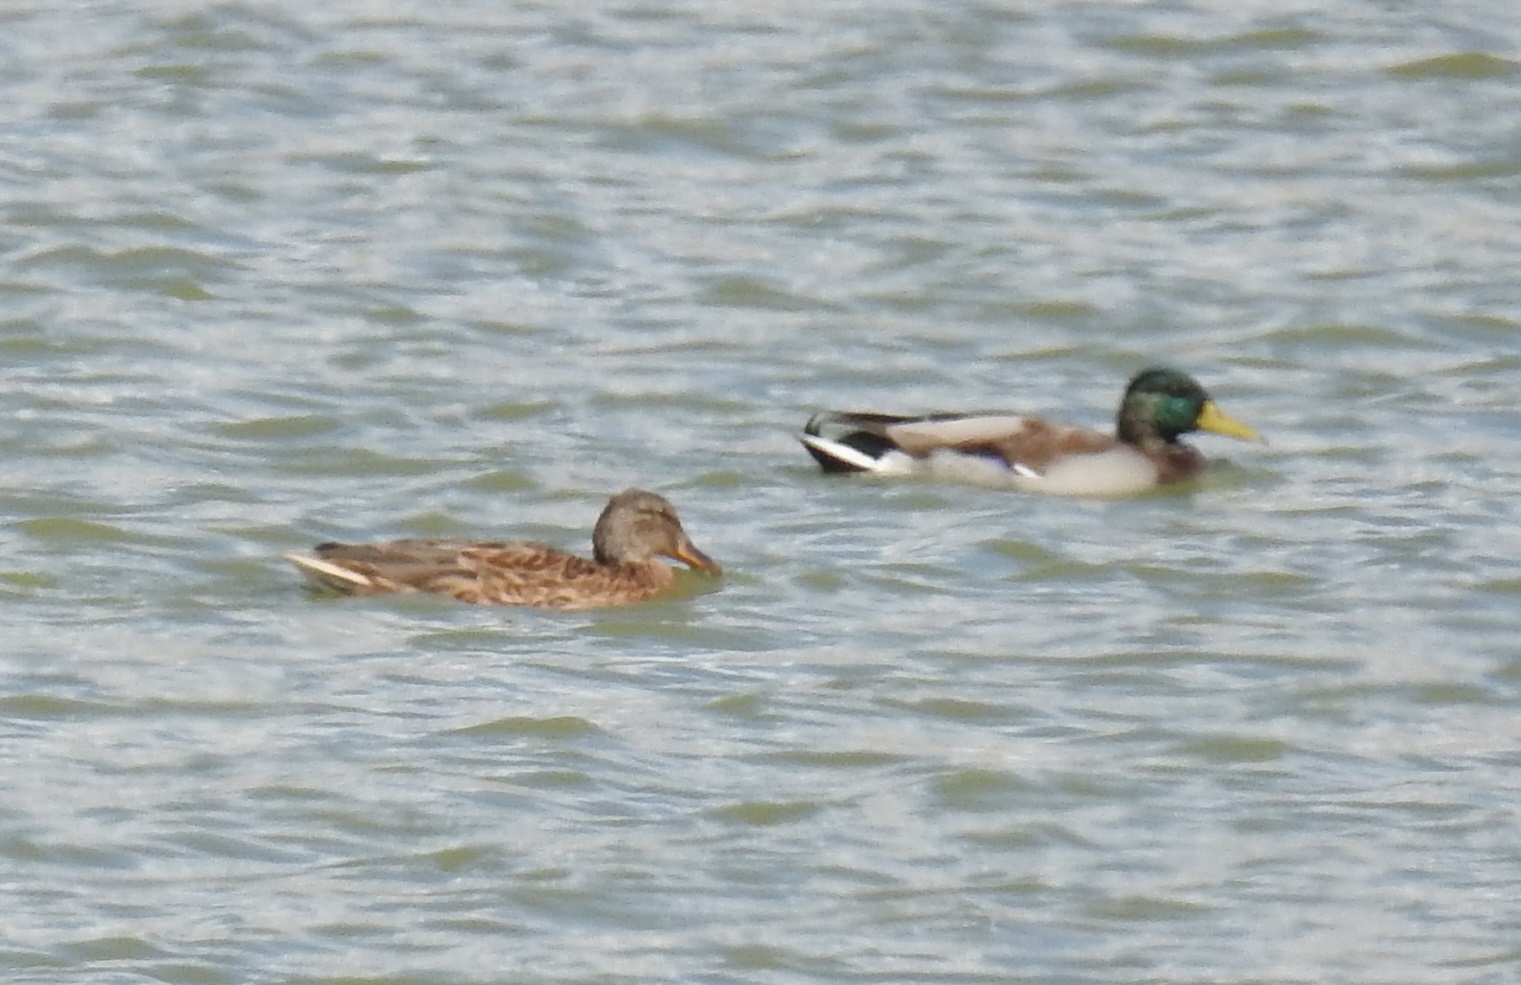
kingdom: Animalia
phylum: Chordata
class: Aves
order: Anseriformes
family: Anatidae
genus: Anas
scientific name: Anas platyrhynchos
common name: Mallard
